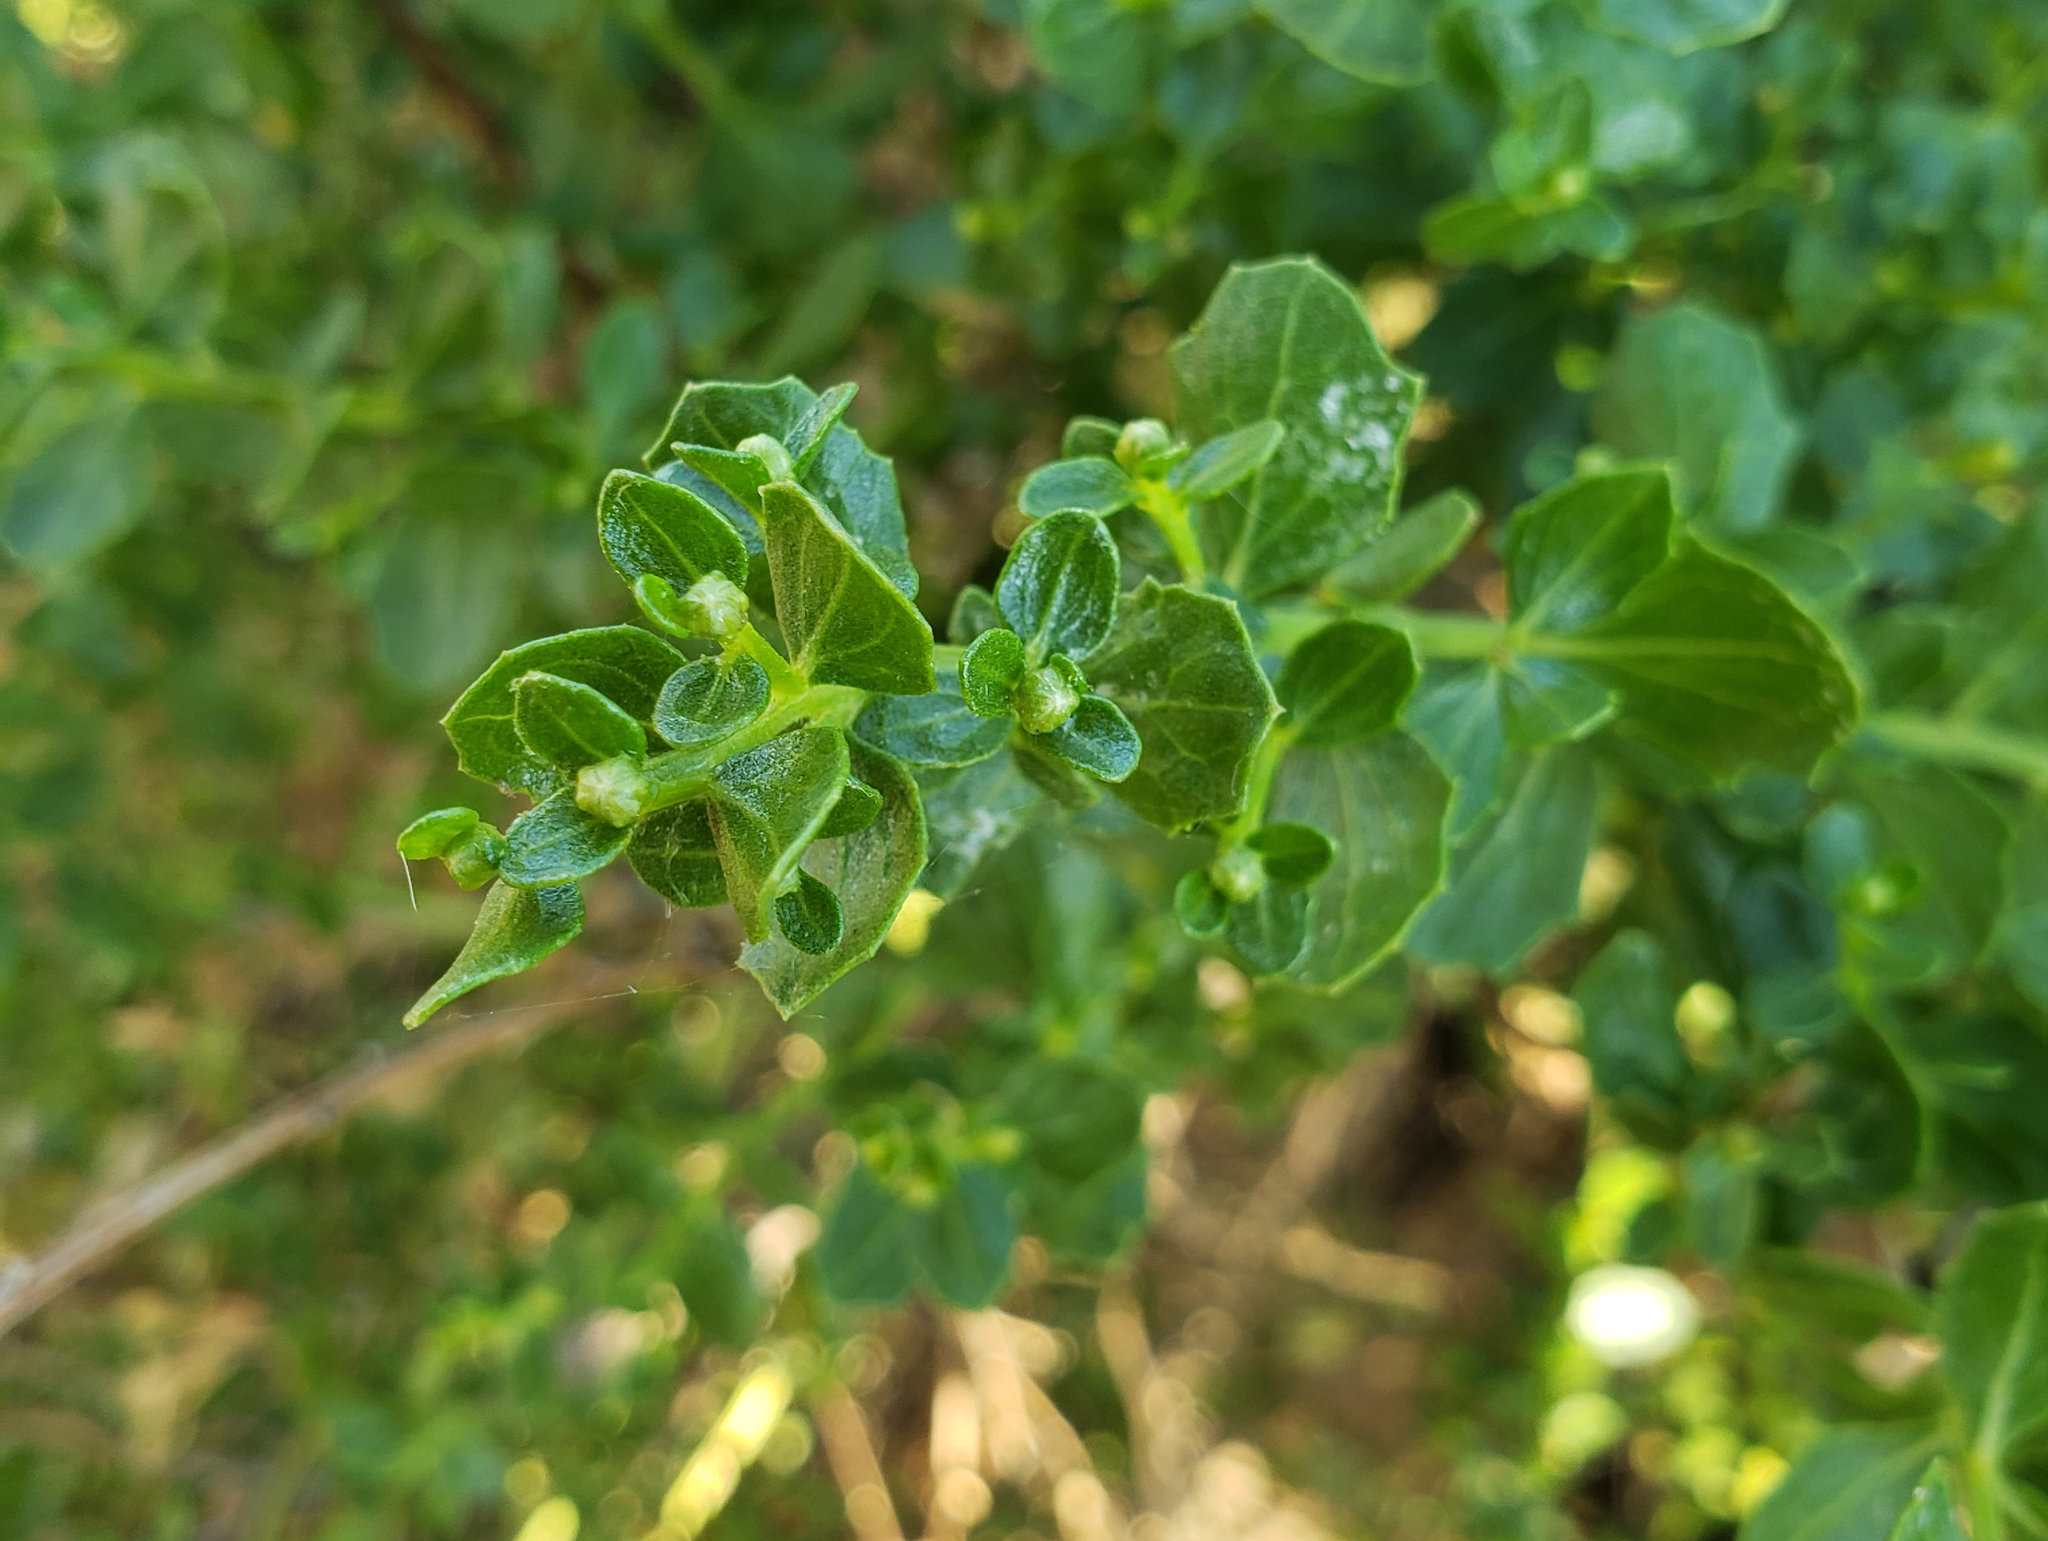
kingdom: Plantae
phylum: Tracheophyta
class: Magnoliopsida
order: Asterales
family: Asteraceae
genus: Baccharis
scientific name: Baccharis pilularis
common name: Coyotebrush
